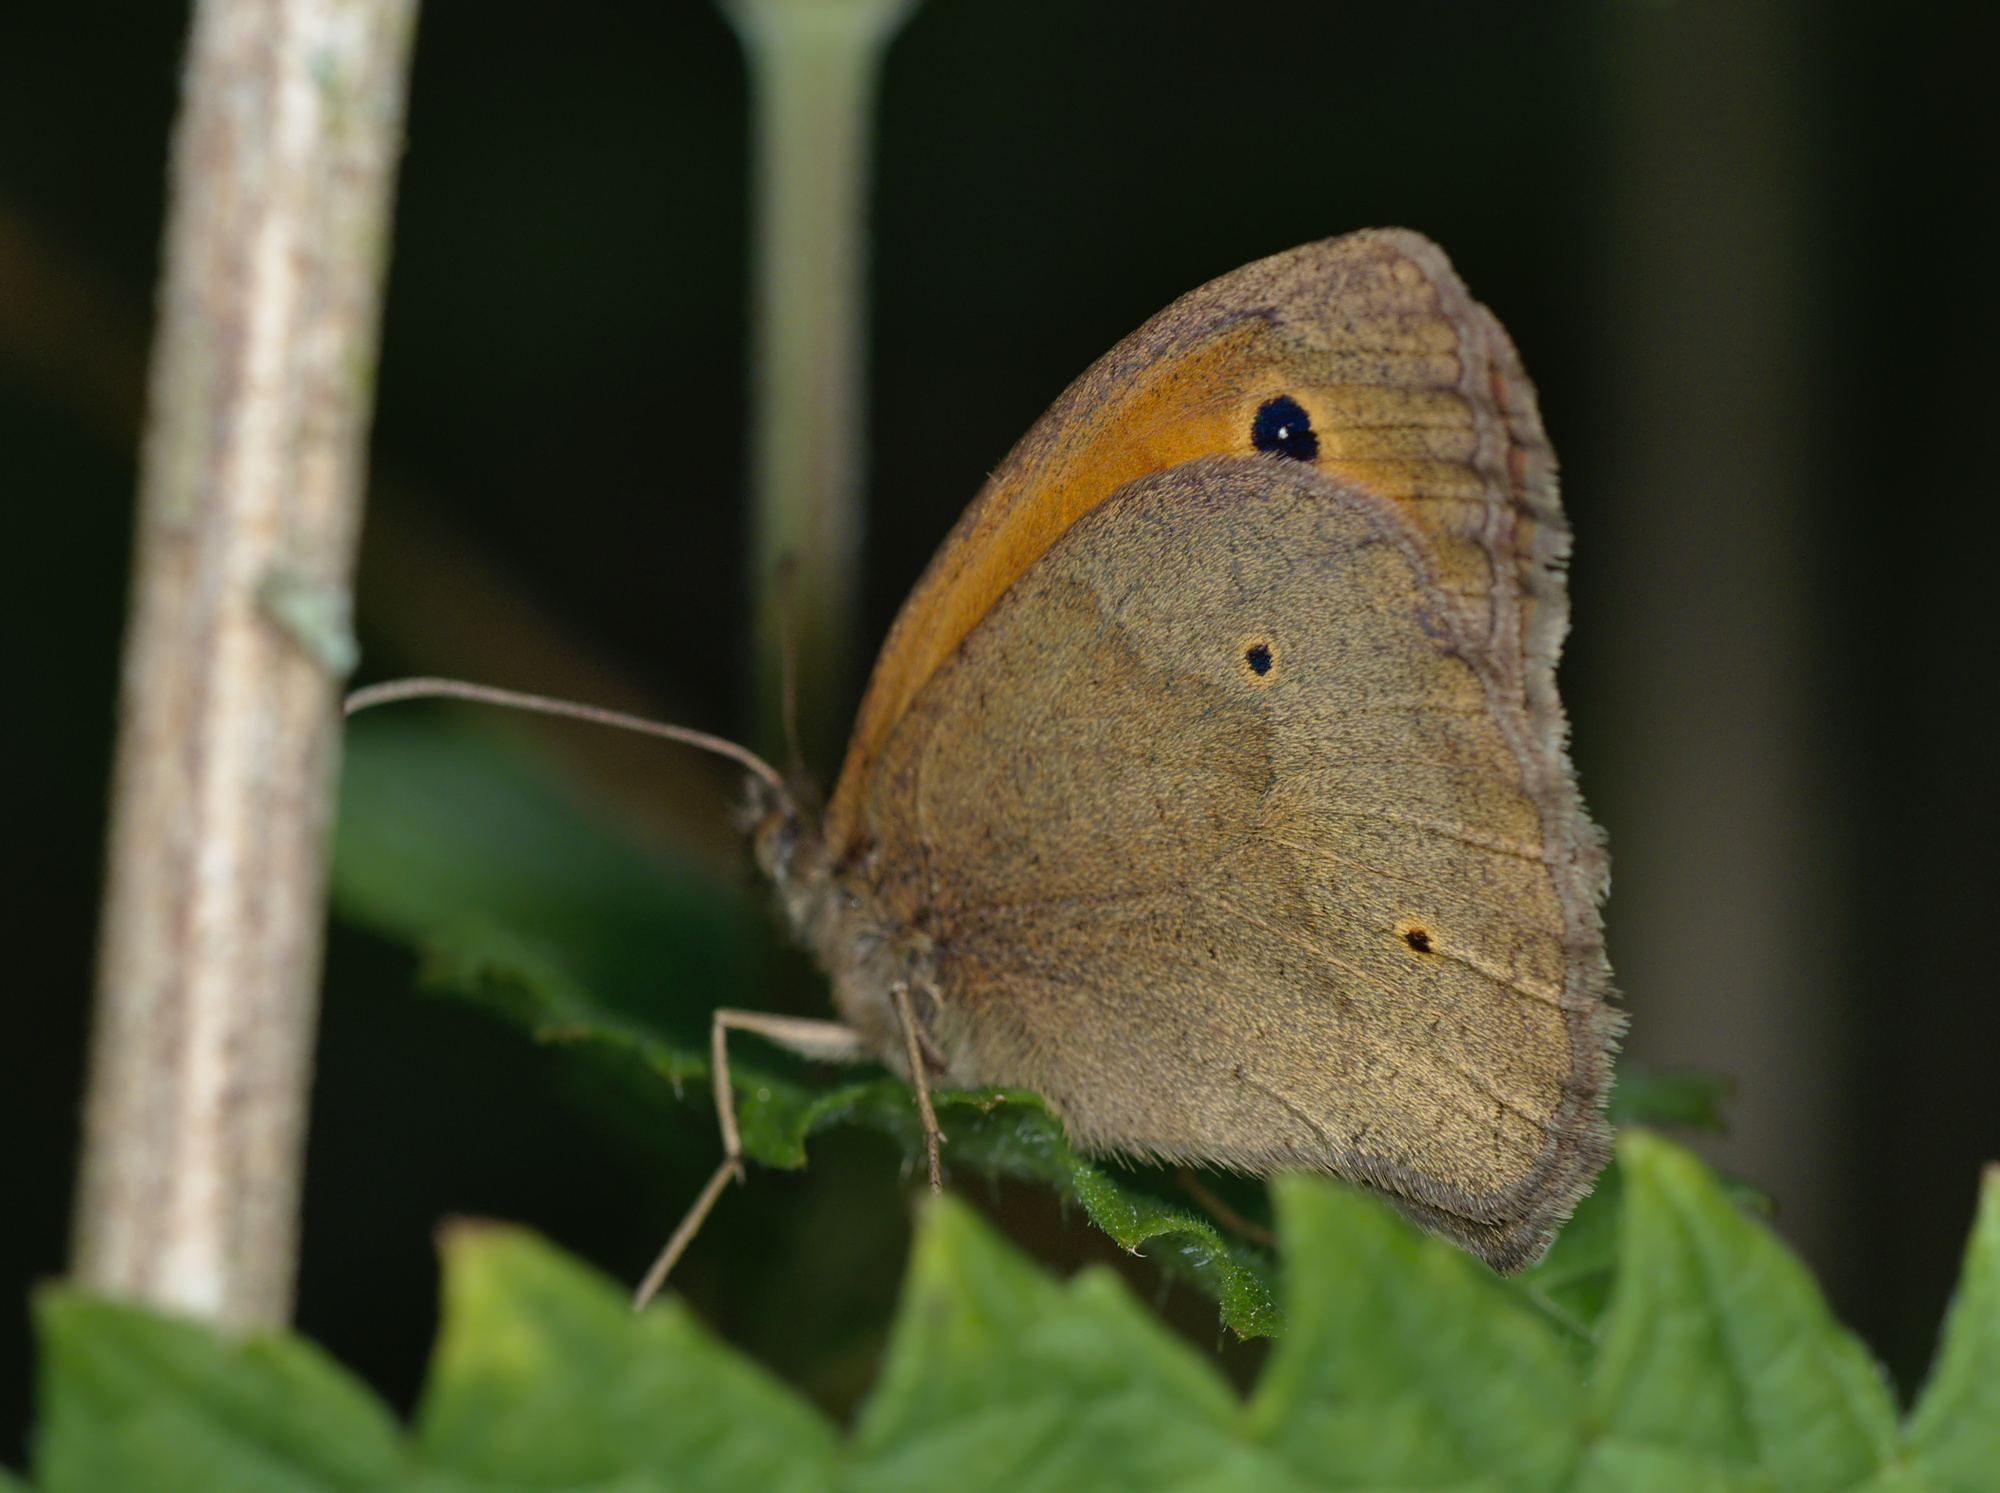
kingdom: Animalia
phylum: Arthropoda
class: Insecta
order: Lepidoptera
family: Nymphalidae
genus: Maniola
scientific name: Maniola jurtina
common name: Meadow brown
